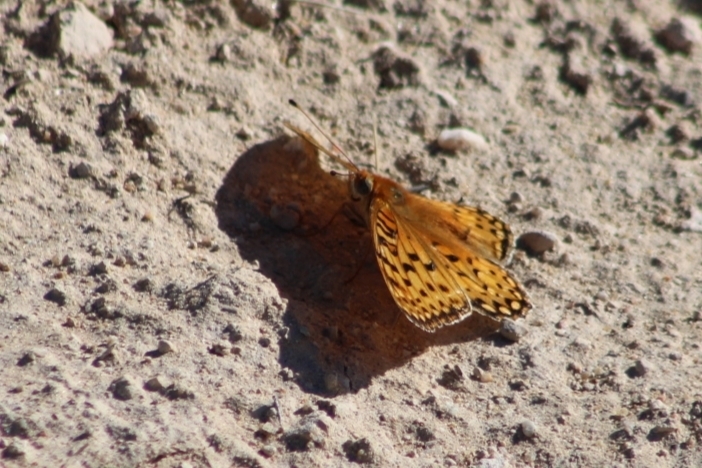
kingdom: Animalia
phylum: Arthropoda
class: Insecta
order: Lepidoptera
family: Nymphalidae
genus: Speyeria
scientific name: Speyeria edwardsii
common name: Edwards' fritillary
